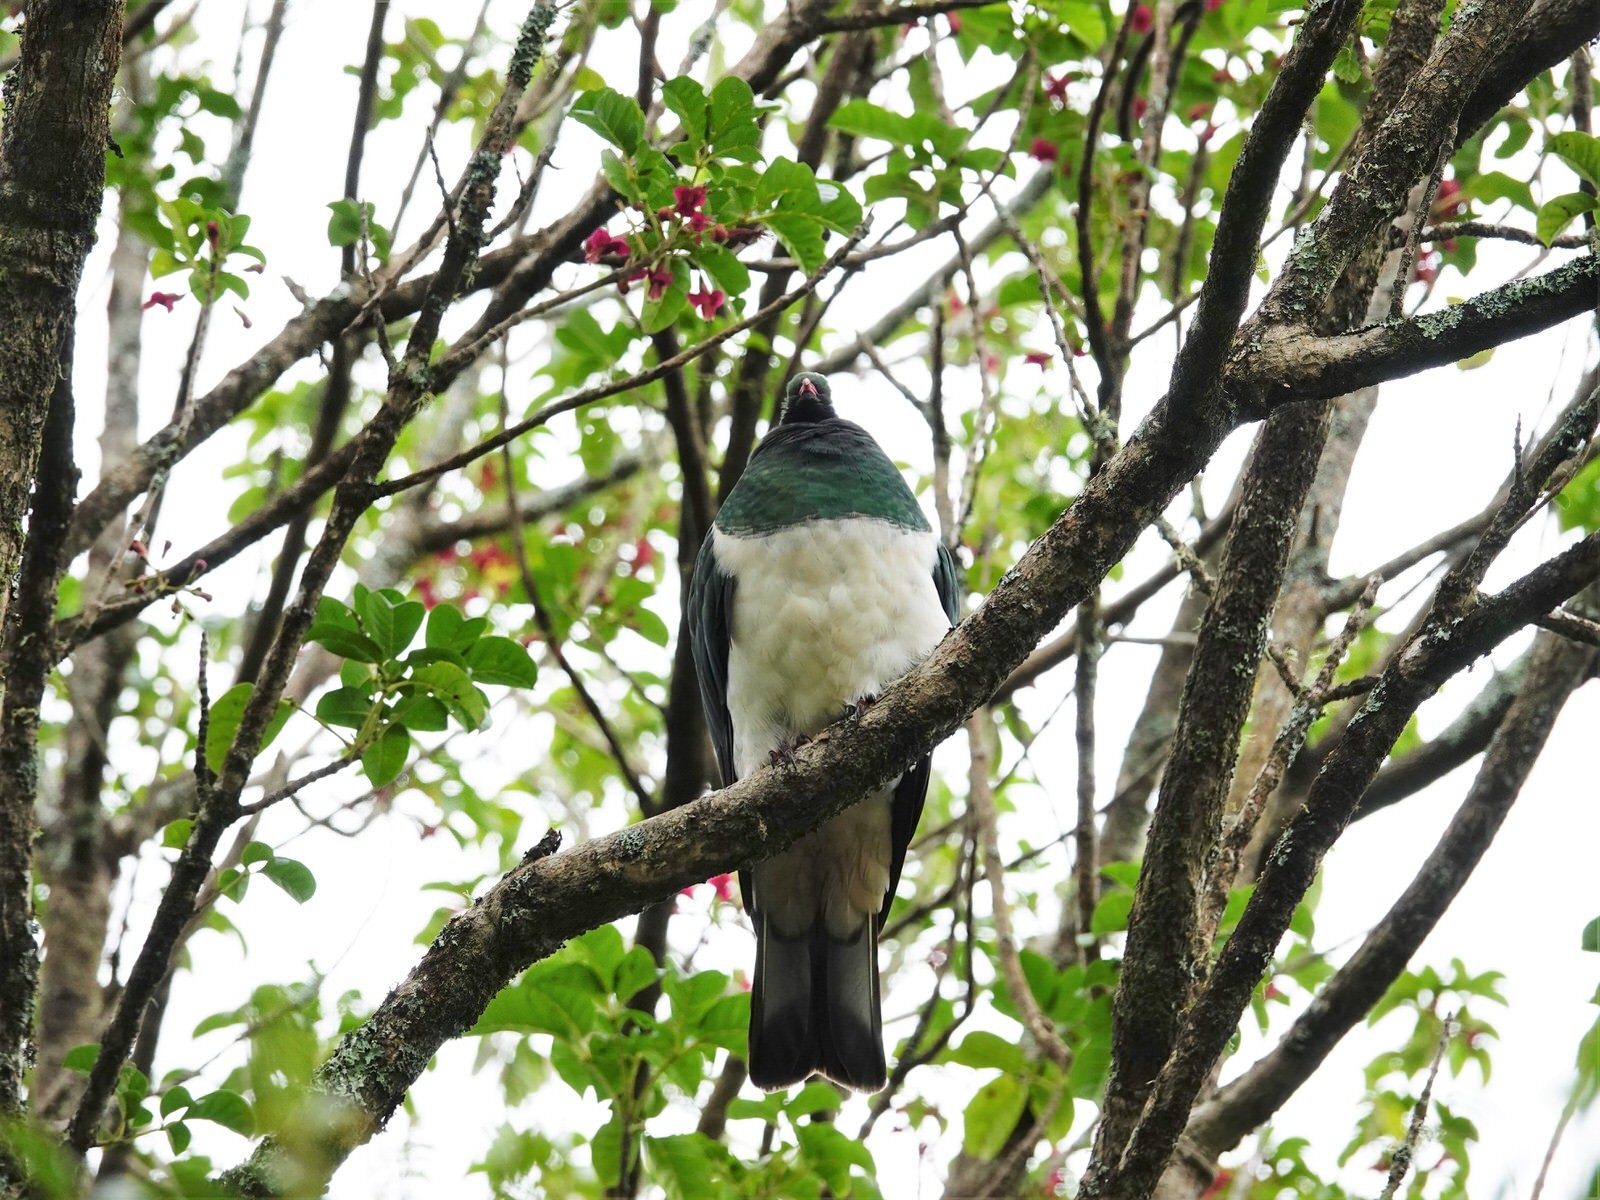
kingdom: Animalia
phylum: Chordata
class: Aves
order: Columbiformes
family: Columbidae
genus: Hemiphaga
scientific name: Hemiphaga novaeseelandiae
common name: New zealand pigeon
